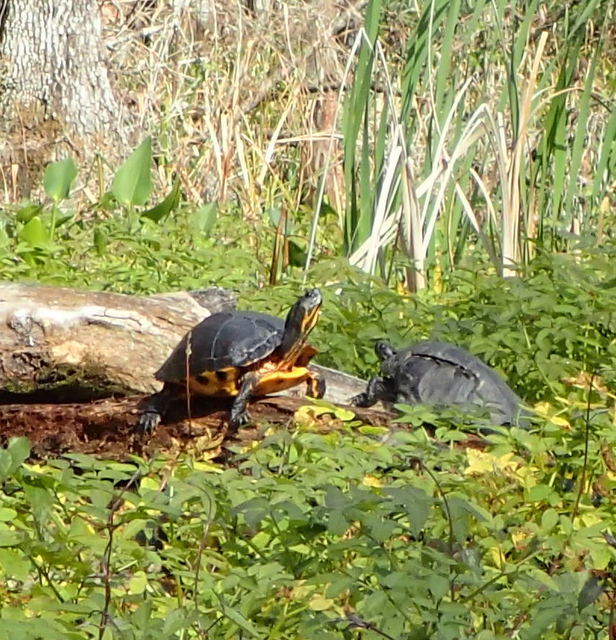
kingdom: Animalia
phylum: Chordata
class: Testudines
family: Emydidae
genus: Trachemys
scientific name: Trachemys scripta
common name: Slider
